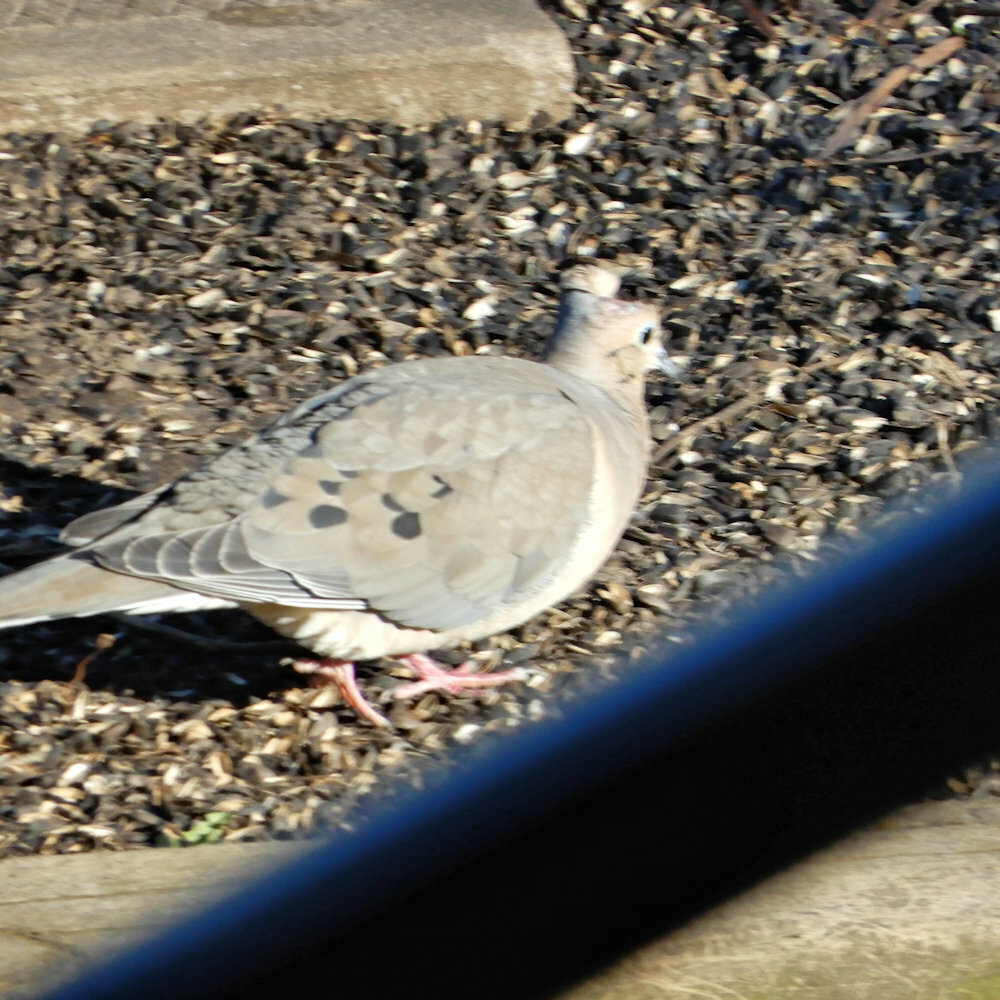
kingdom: Animalia
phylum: Chordata
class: Aves
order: Columbiformes
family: Columbidae
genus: Zenaida
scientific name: Zenaida macroura
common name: Mourning dove
